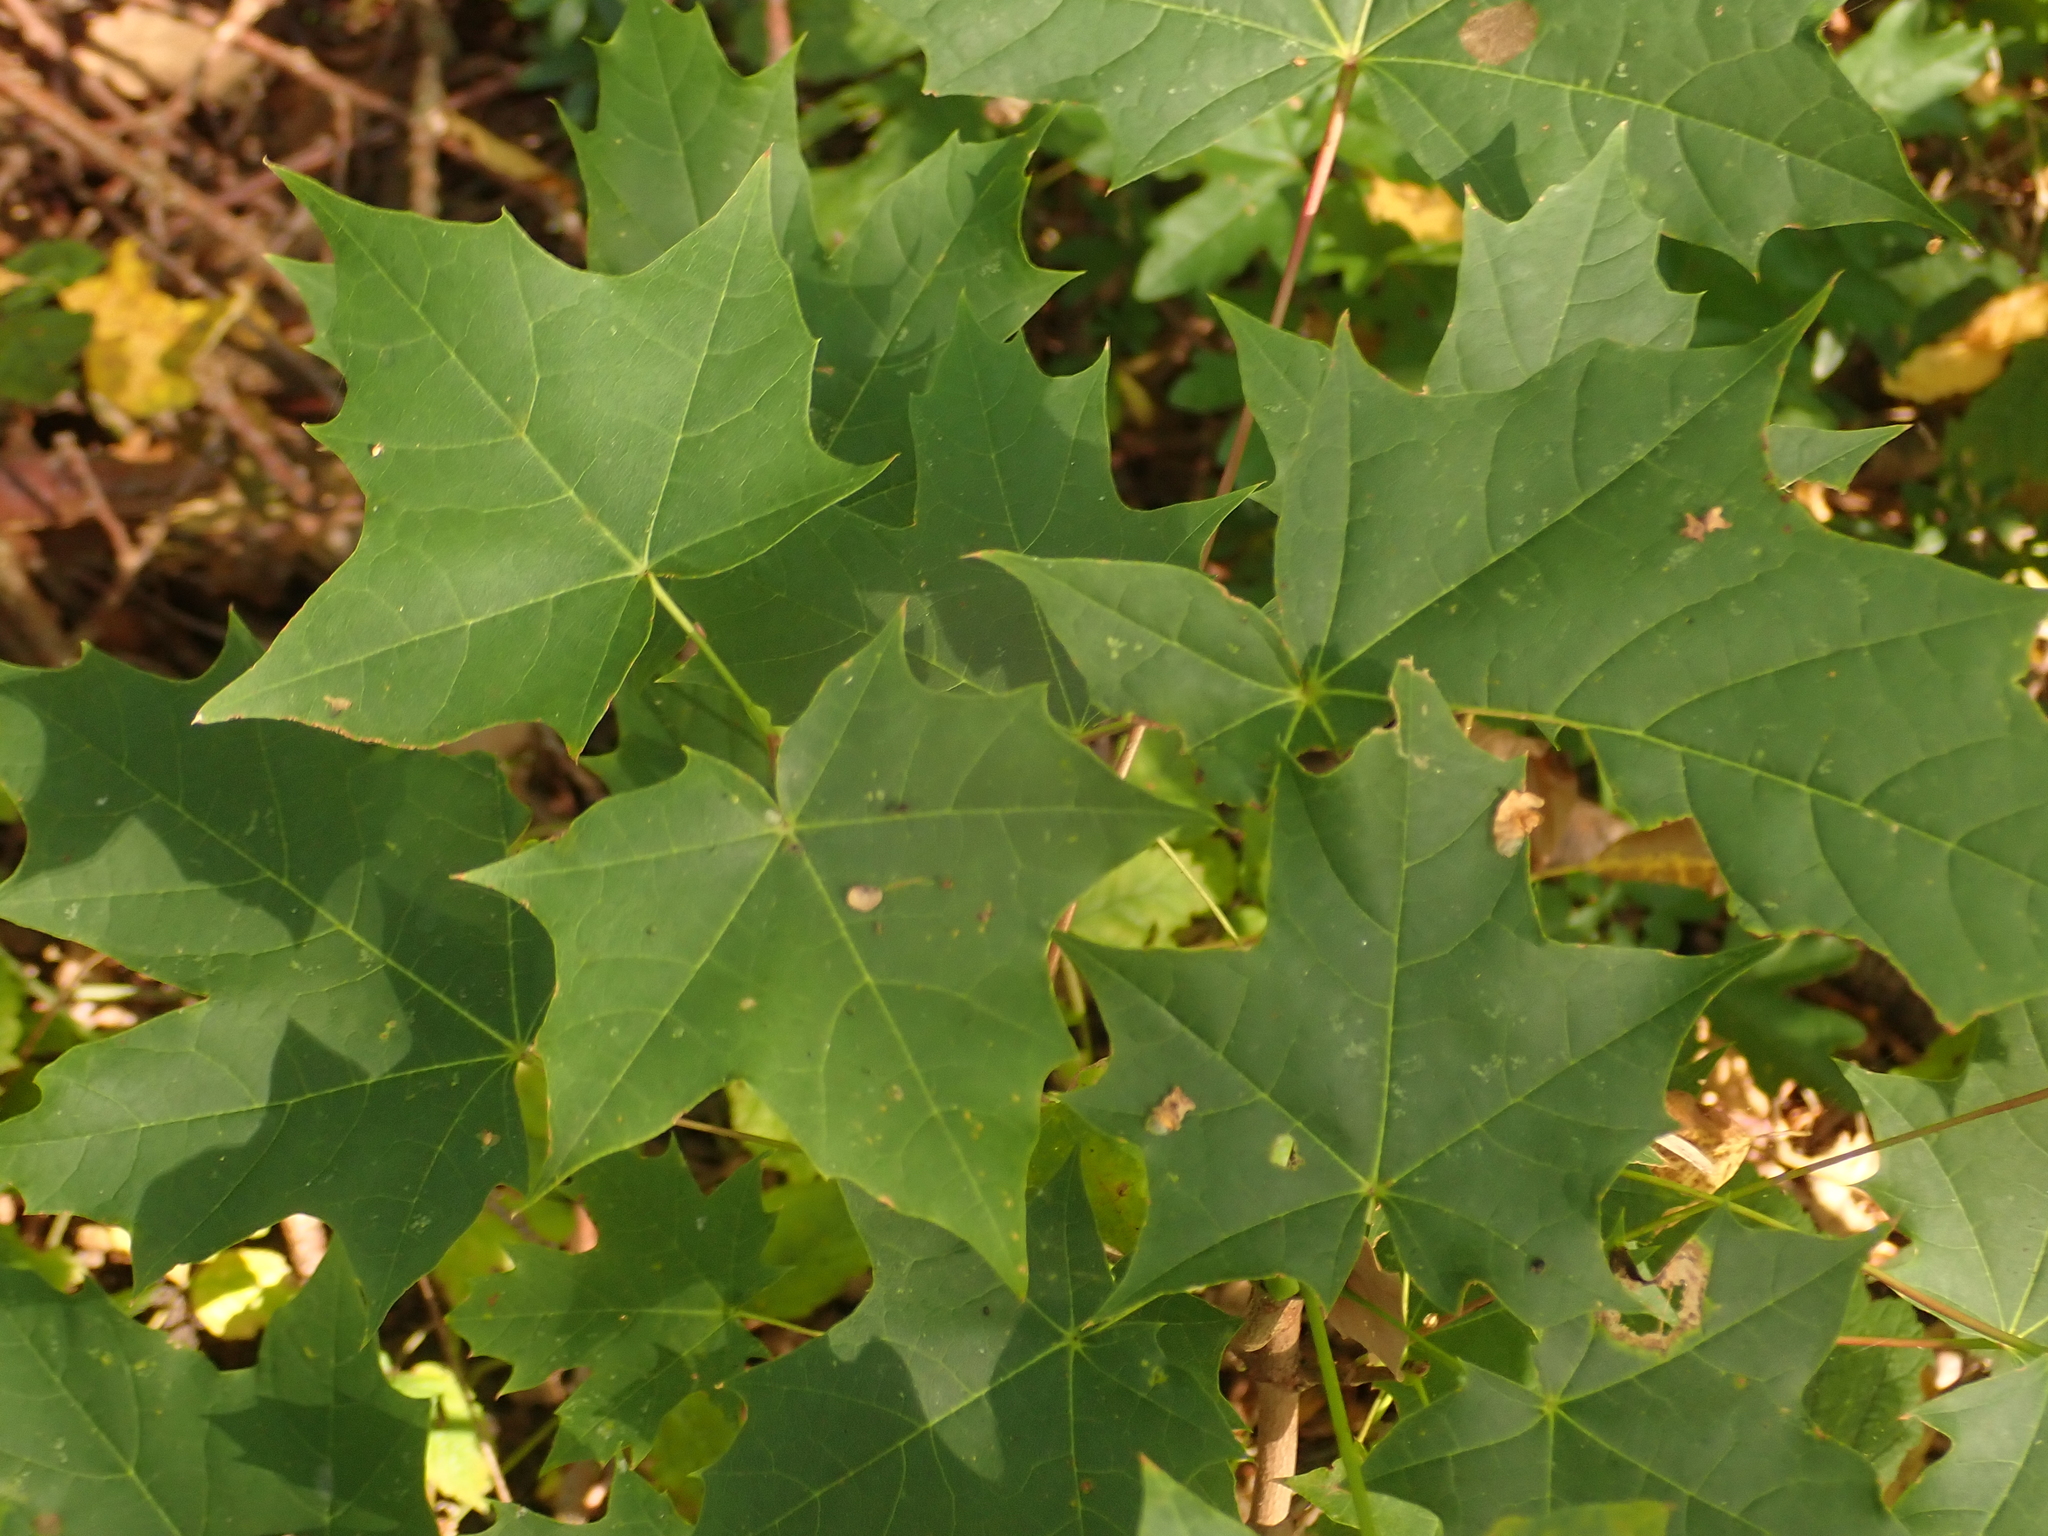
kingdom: Plantae
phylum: Tracheophyta
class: Magnoliopsida
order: Sapindales
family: Sapindaceae
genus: Acer
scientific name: Acer platanoides
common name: Norway maple
